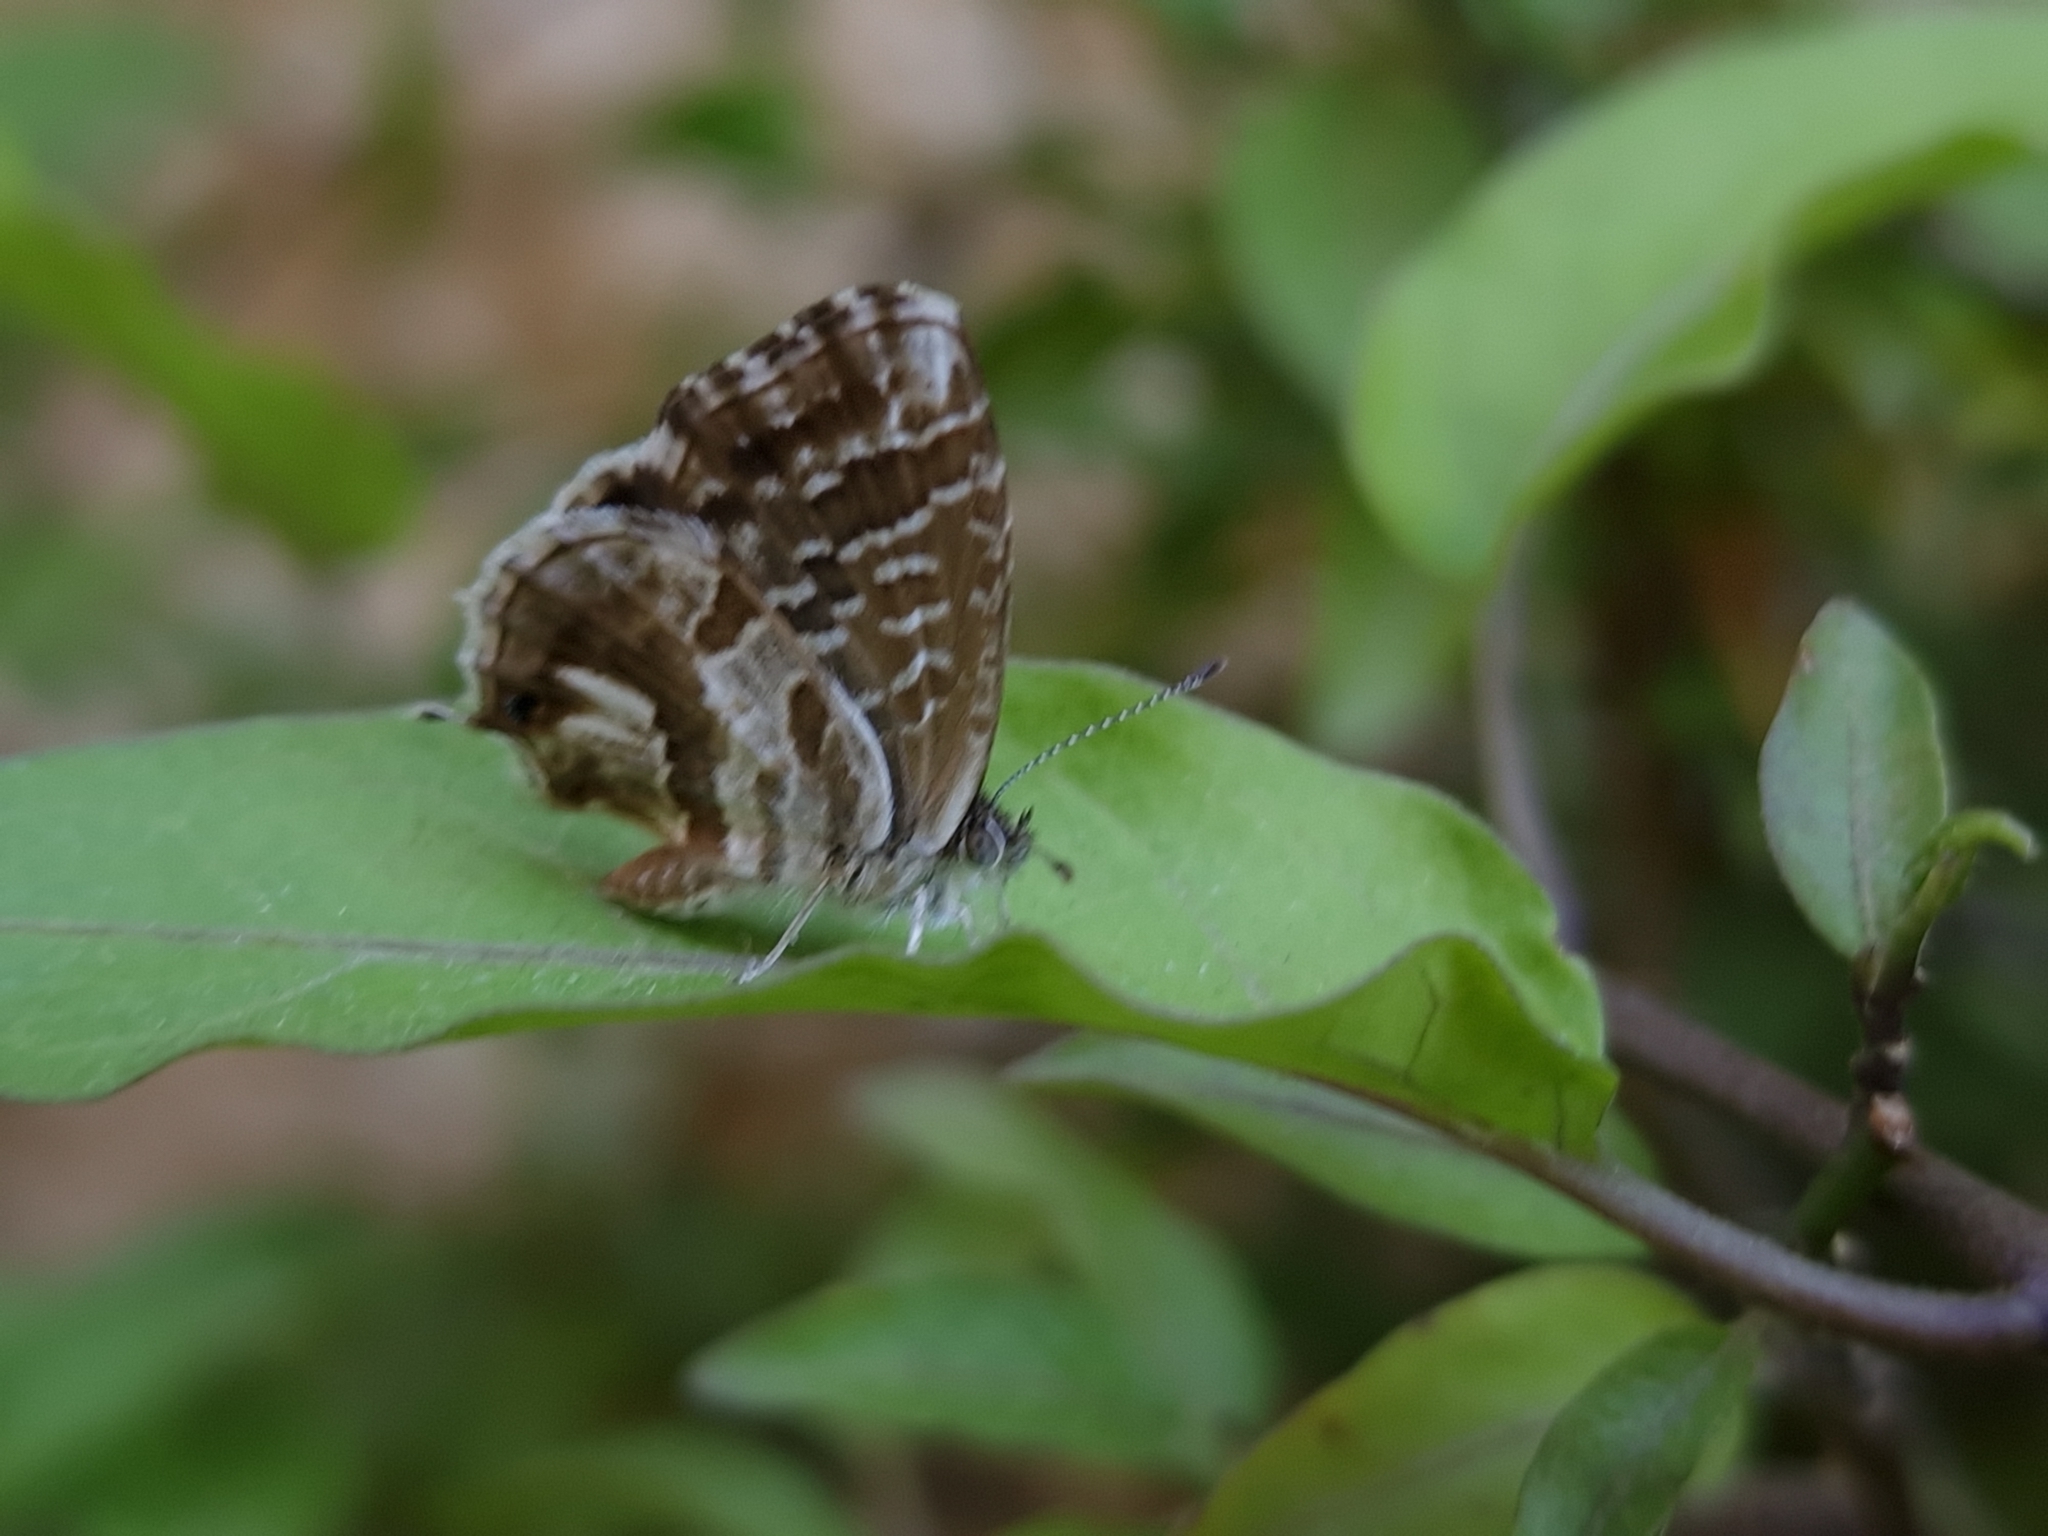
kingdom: Animalia
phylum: Arthropoda
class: Insecta
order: Lepidoptera
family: Lycaenidae
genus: Cacyreus
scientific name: Cacyreus marshalli
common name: Geranium bronze
